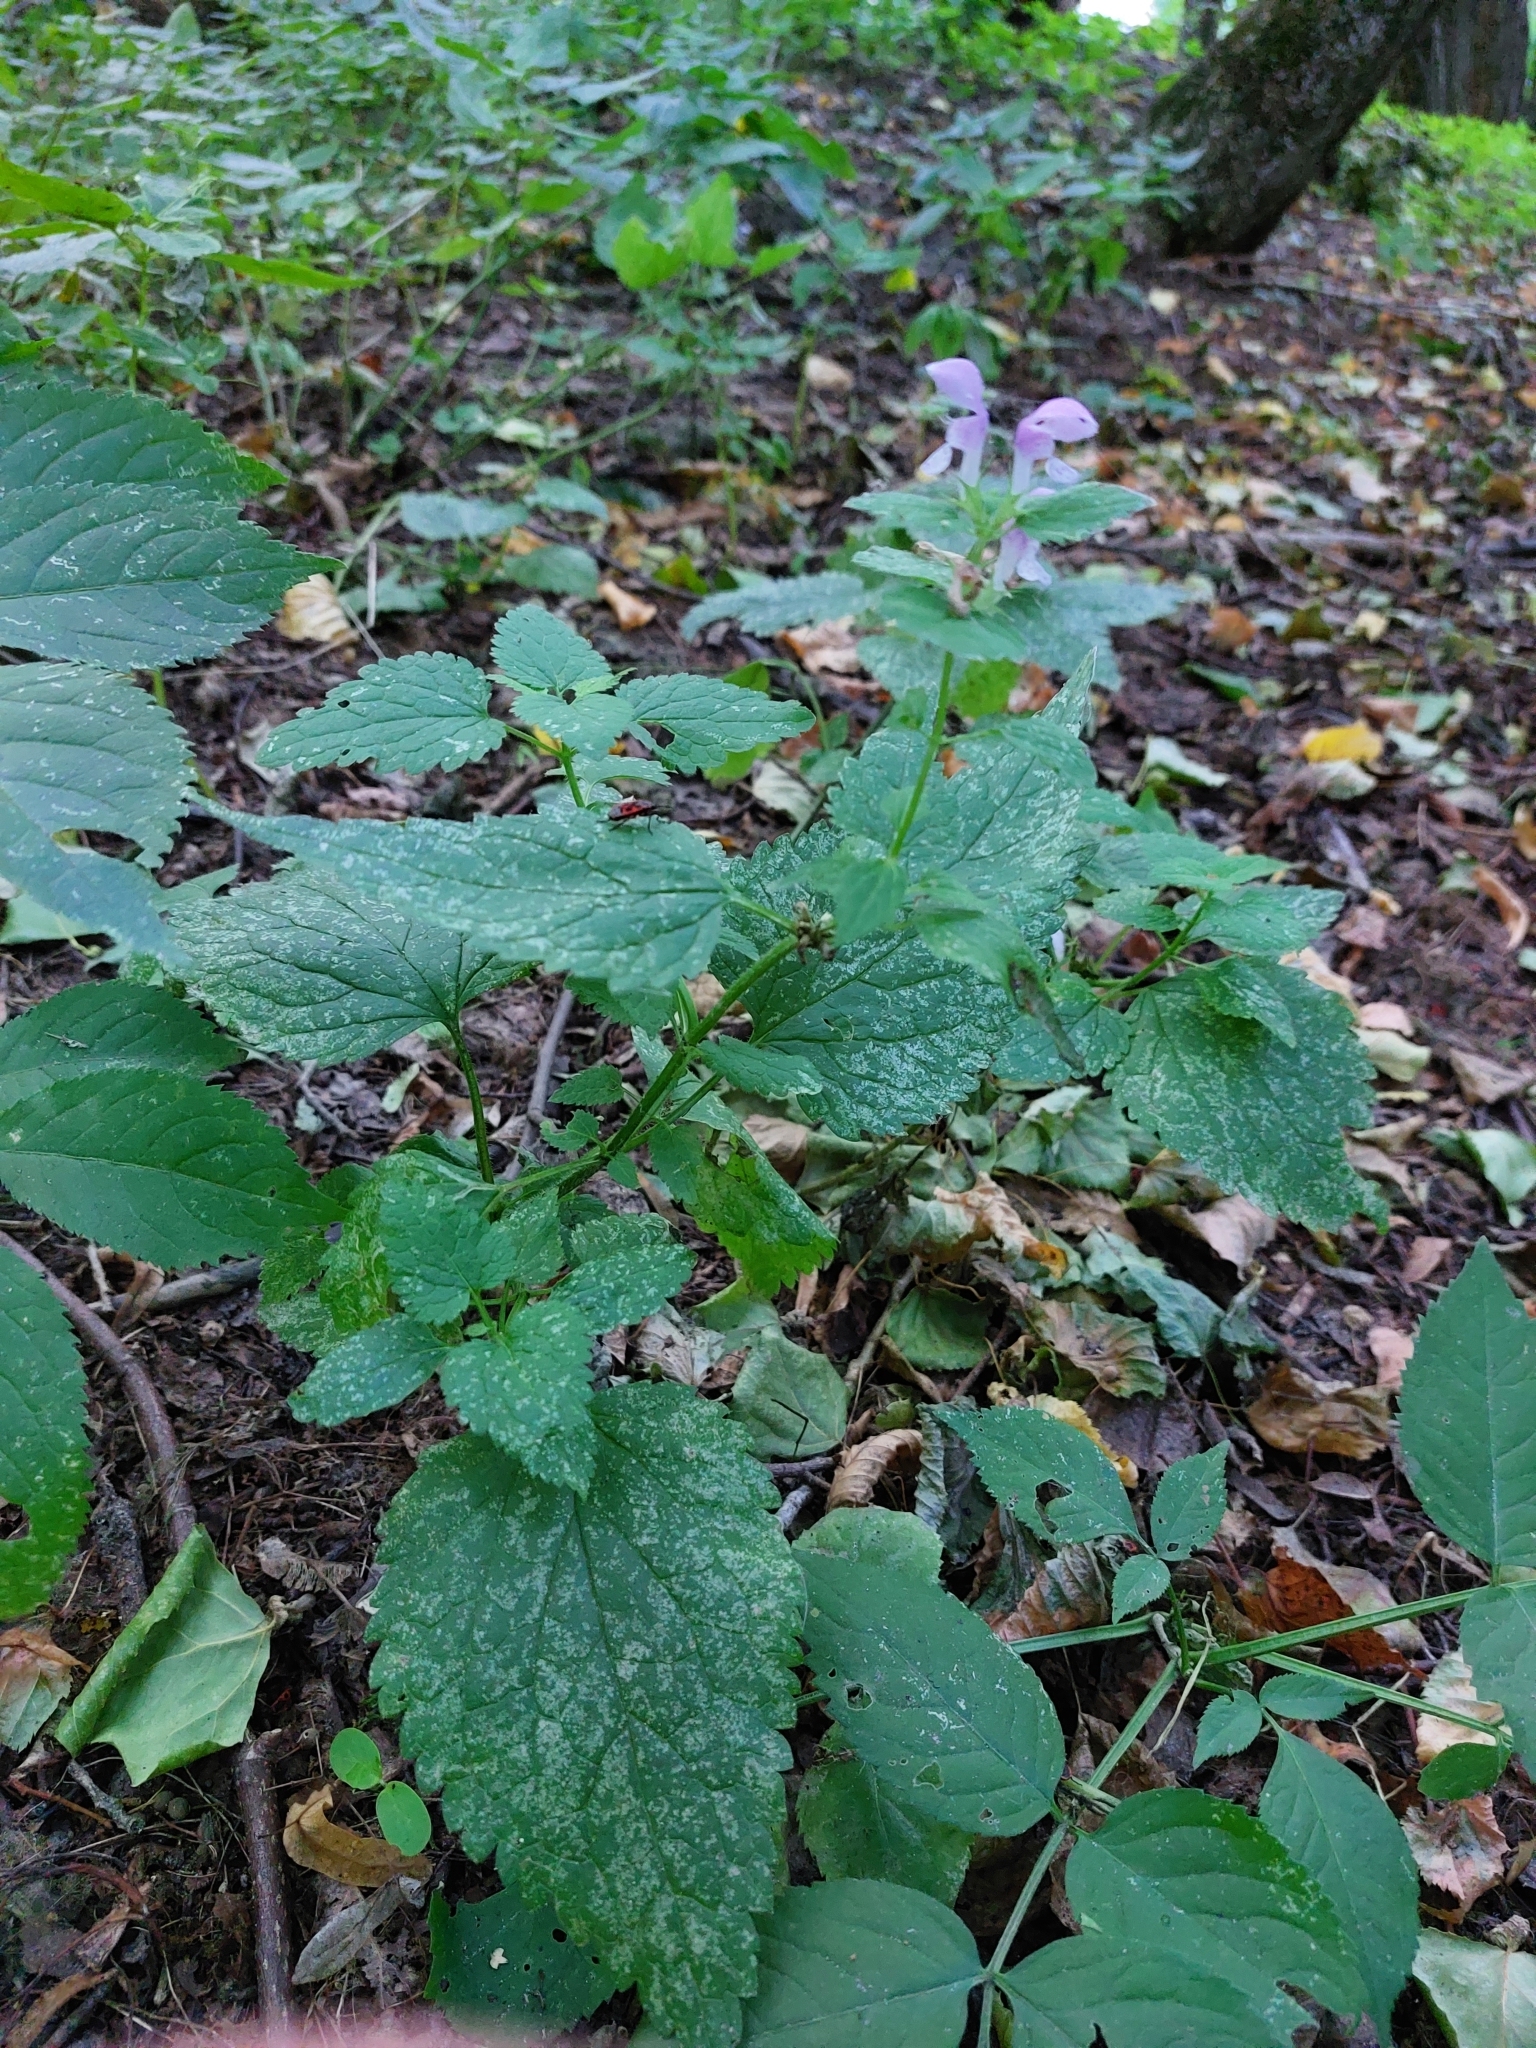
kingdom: Plantae
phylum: Tracheophyta
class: Magnoliopsida
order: Lamiales
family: Lamiaceae
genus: Lamium
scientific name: Lamium maculatum
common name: Spotted dead-nettle
